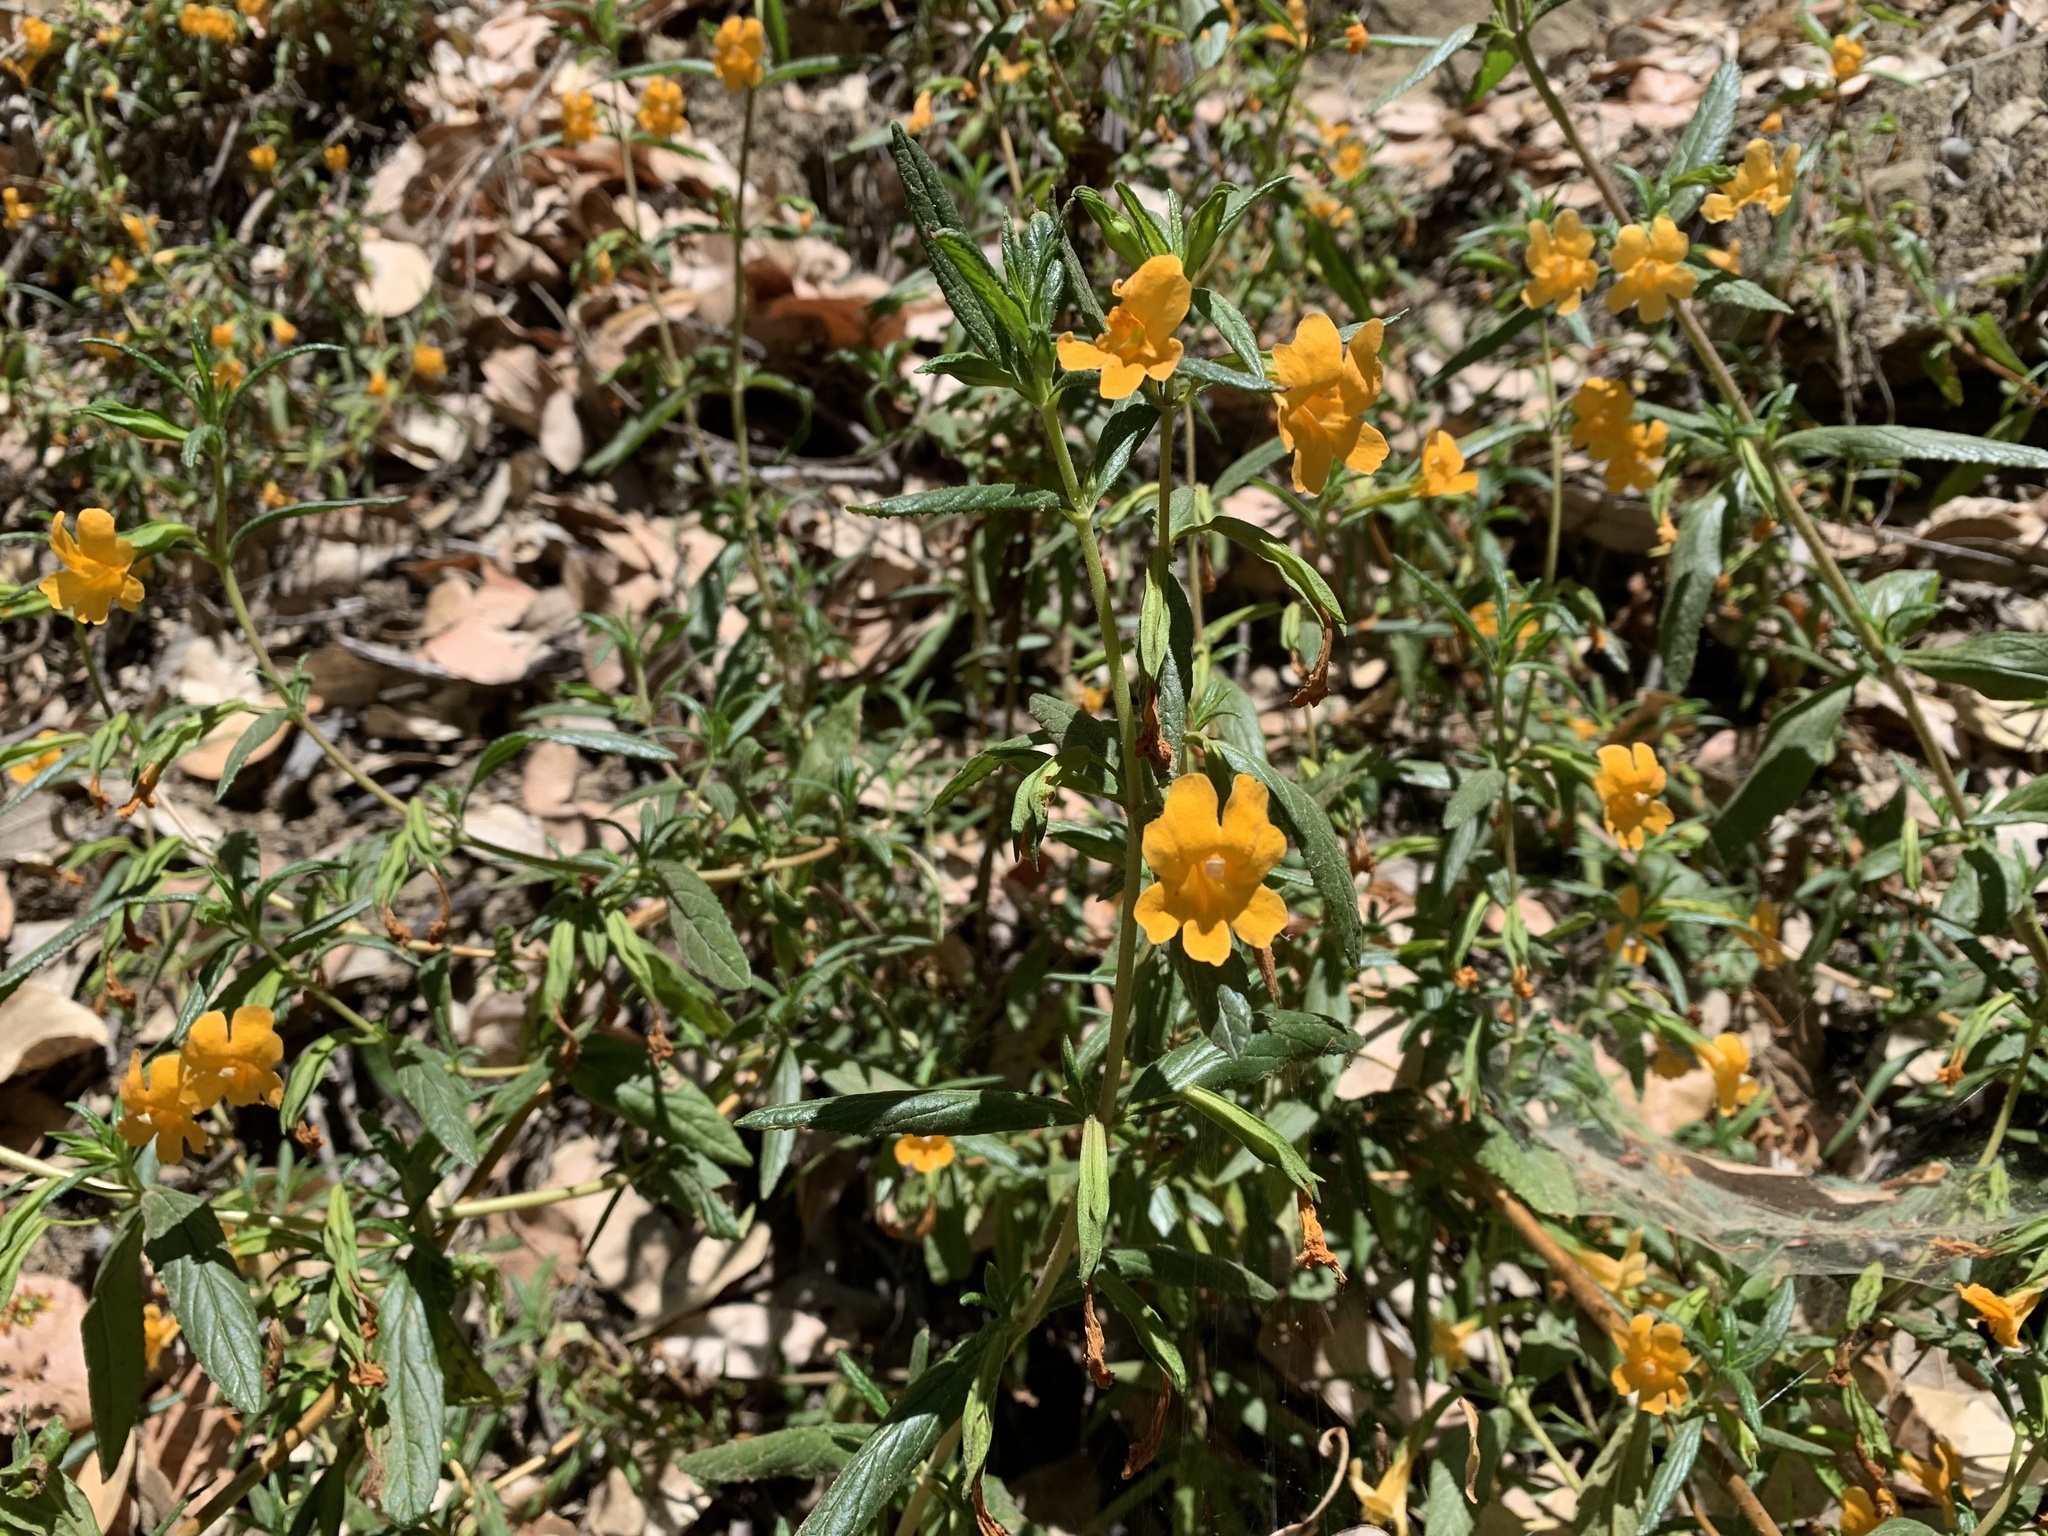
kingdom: Plantae
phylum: Tracheophyta
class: Magnoliopsida
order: Lamiales
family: Phrymaceae
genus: Diplacus
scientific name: Diplacus aurantiacus
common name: Bush monkey-flower
